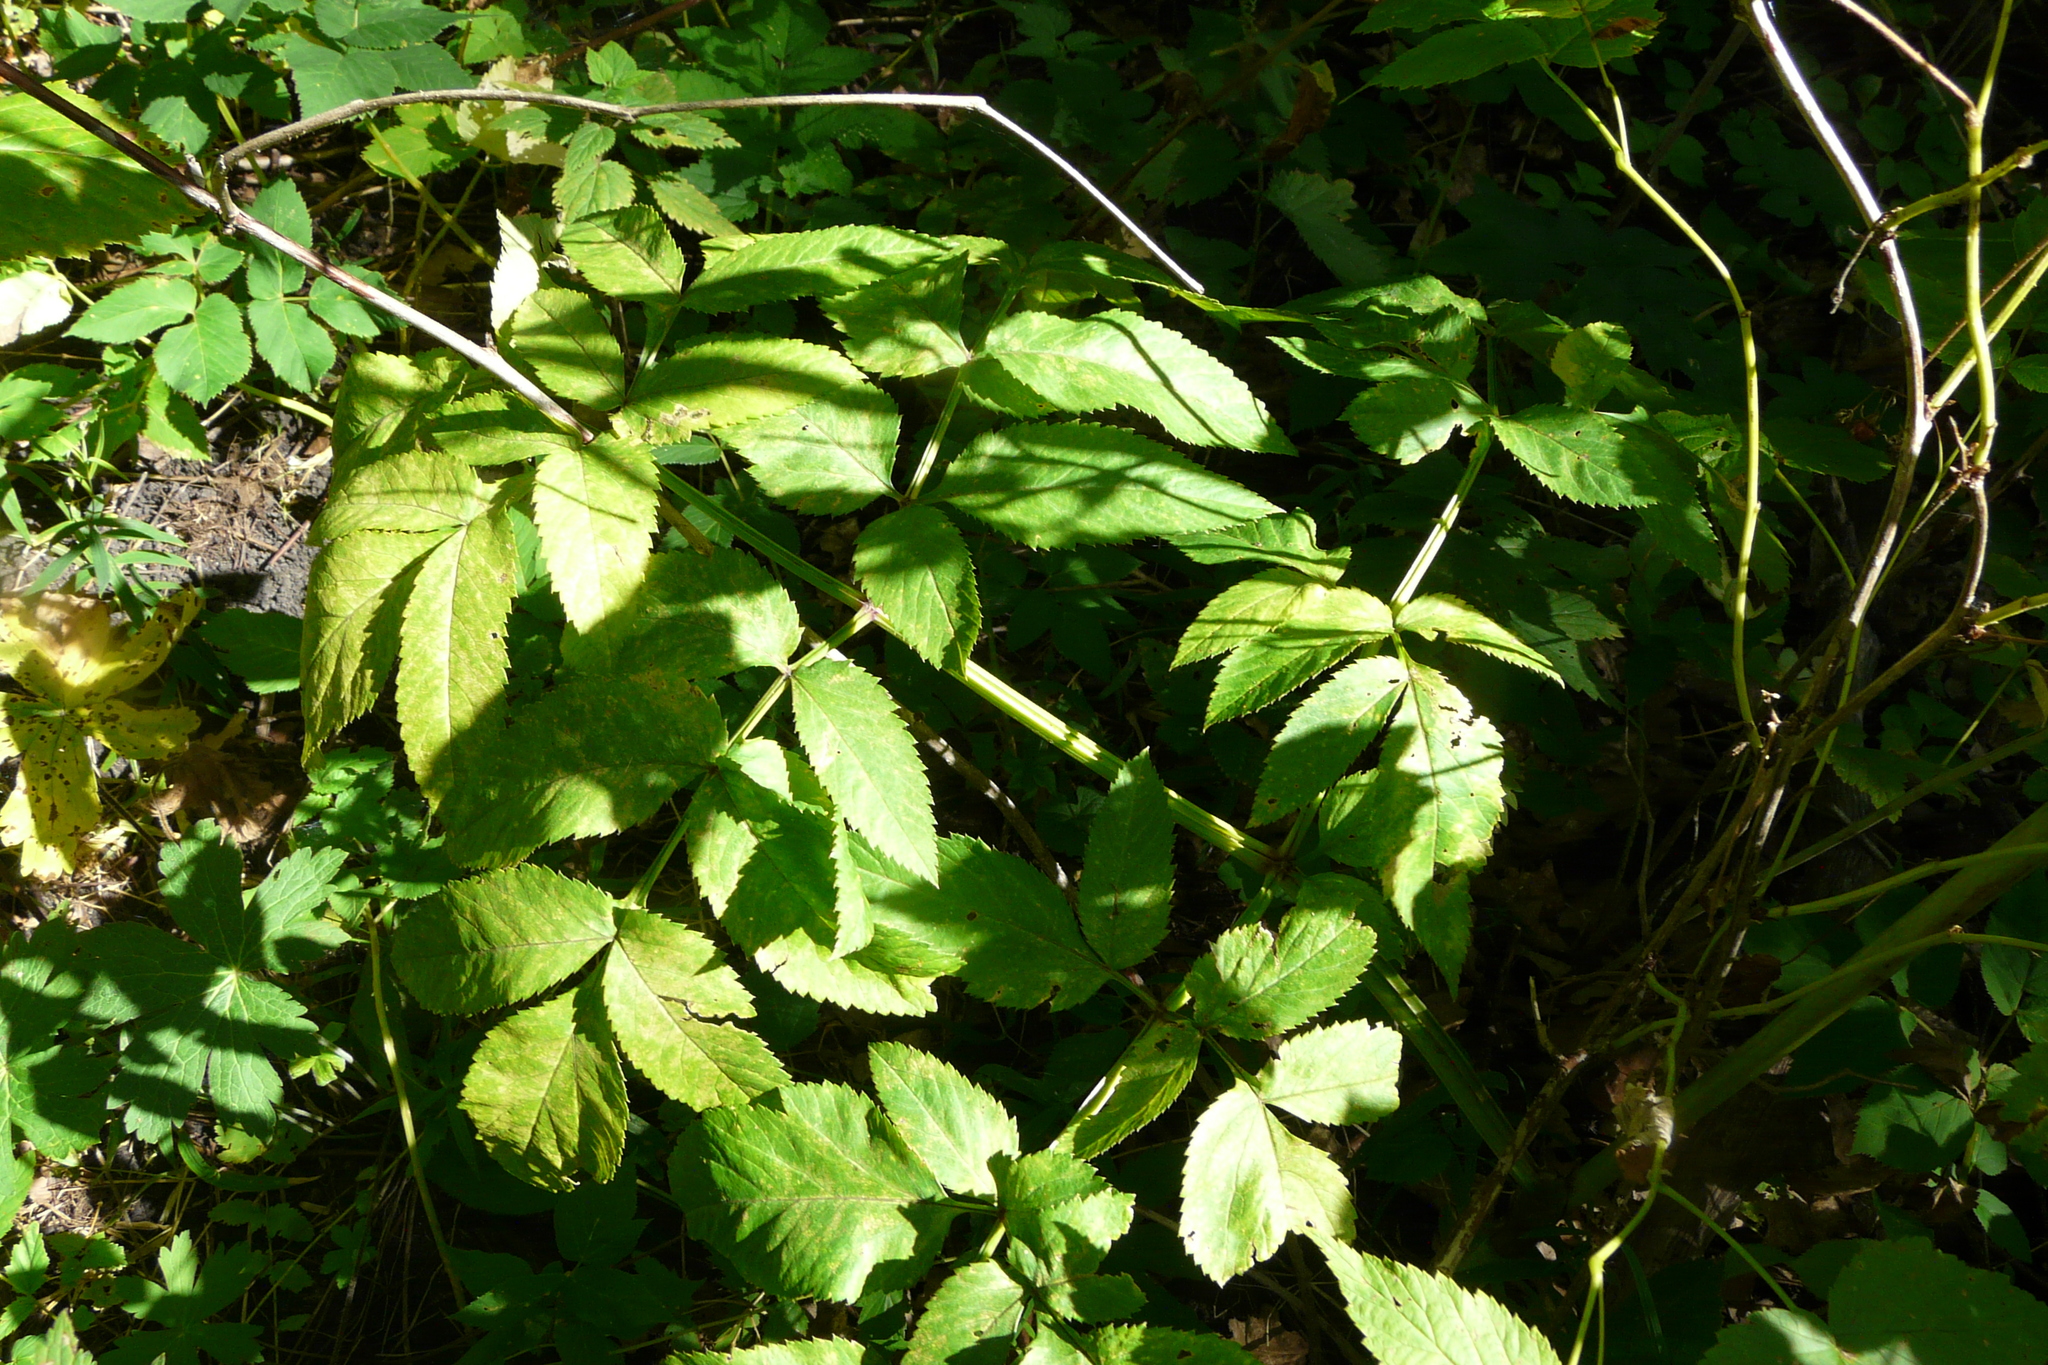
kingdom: Plantae
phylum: Tracheophyta
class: Magnoliopsida
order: Apiales
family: Apiaceae
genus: Angelica
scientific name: Angelica sylvestris
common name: Wild angelica
